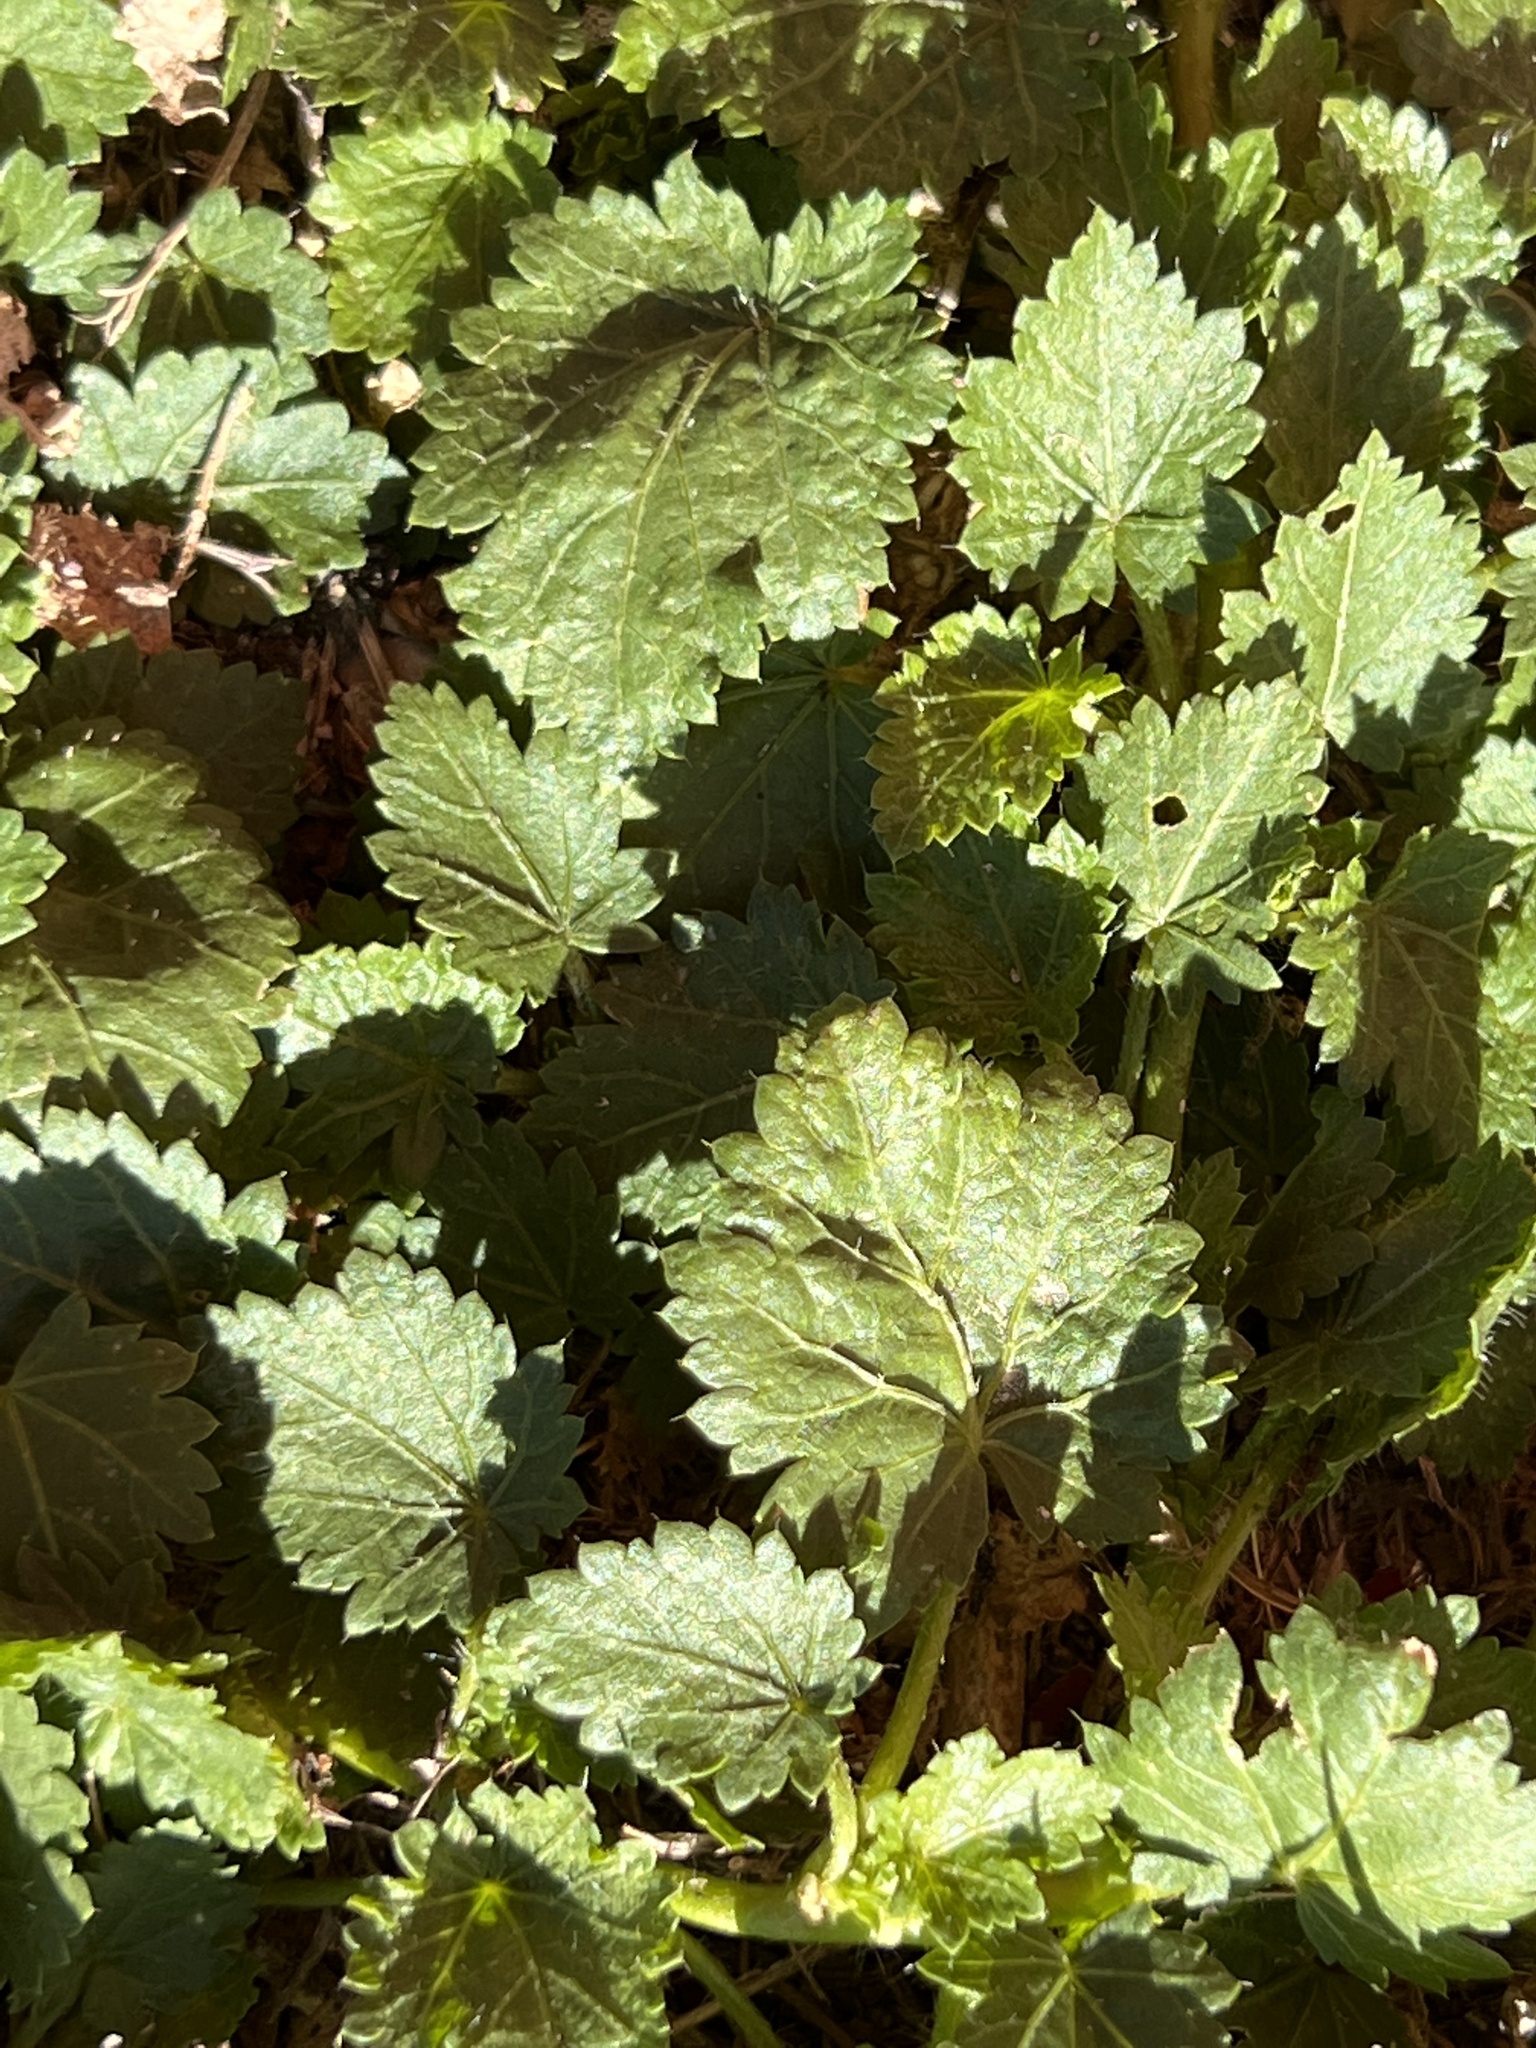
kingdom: Plantae
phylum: Tracheophyta
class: Magnoliopsida
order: Malvales
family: Malvaceae
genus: Modiola
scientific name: Modiola caroliniana
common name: Carolina bristlemallow
